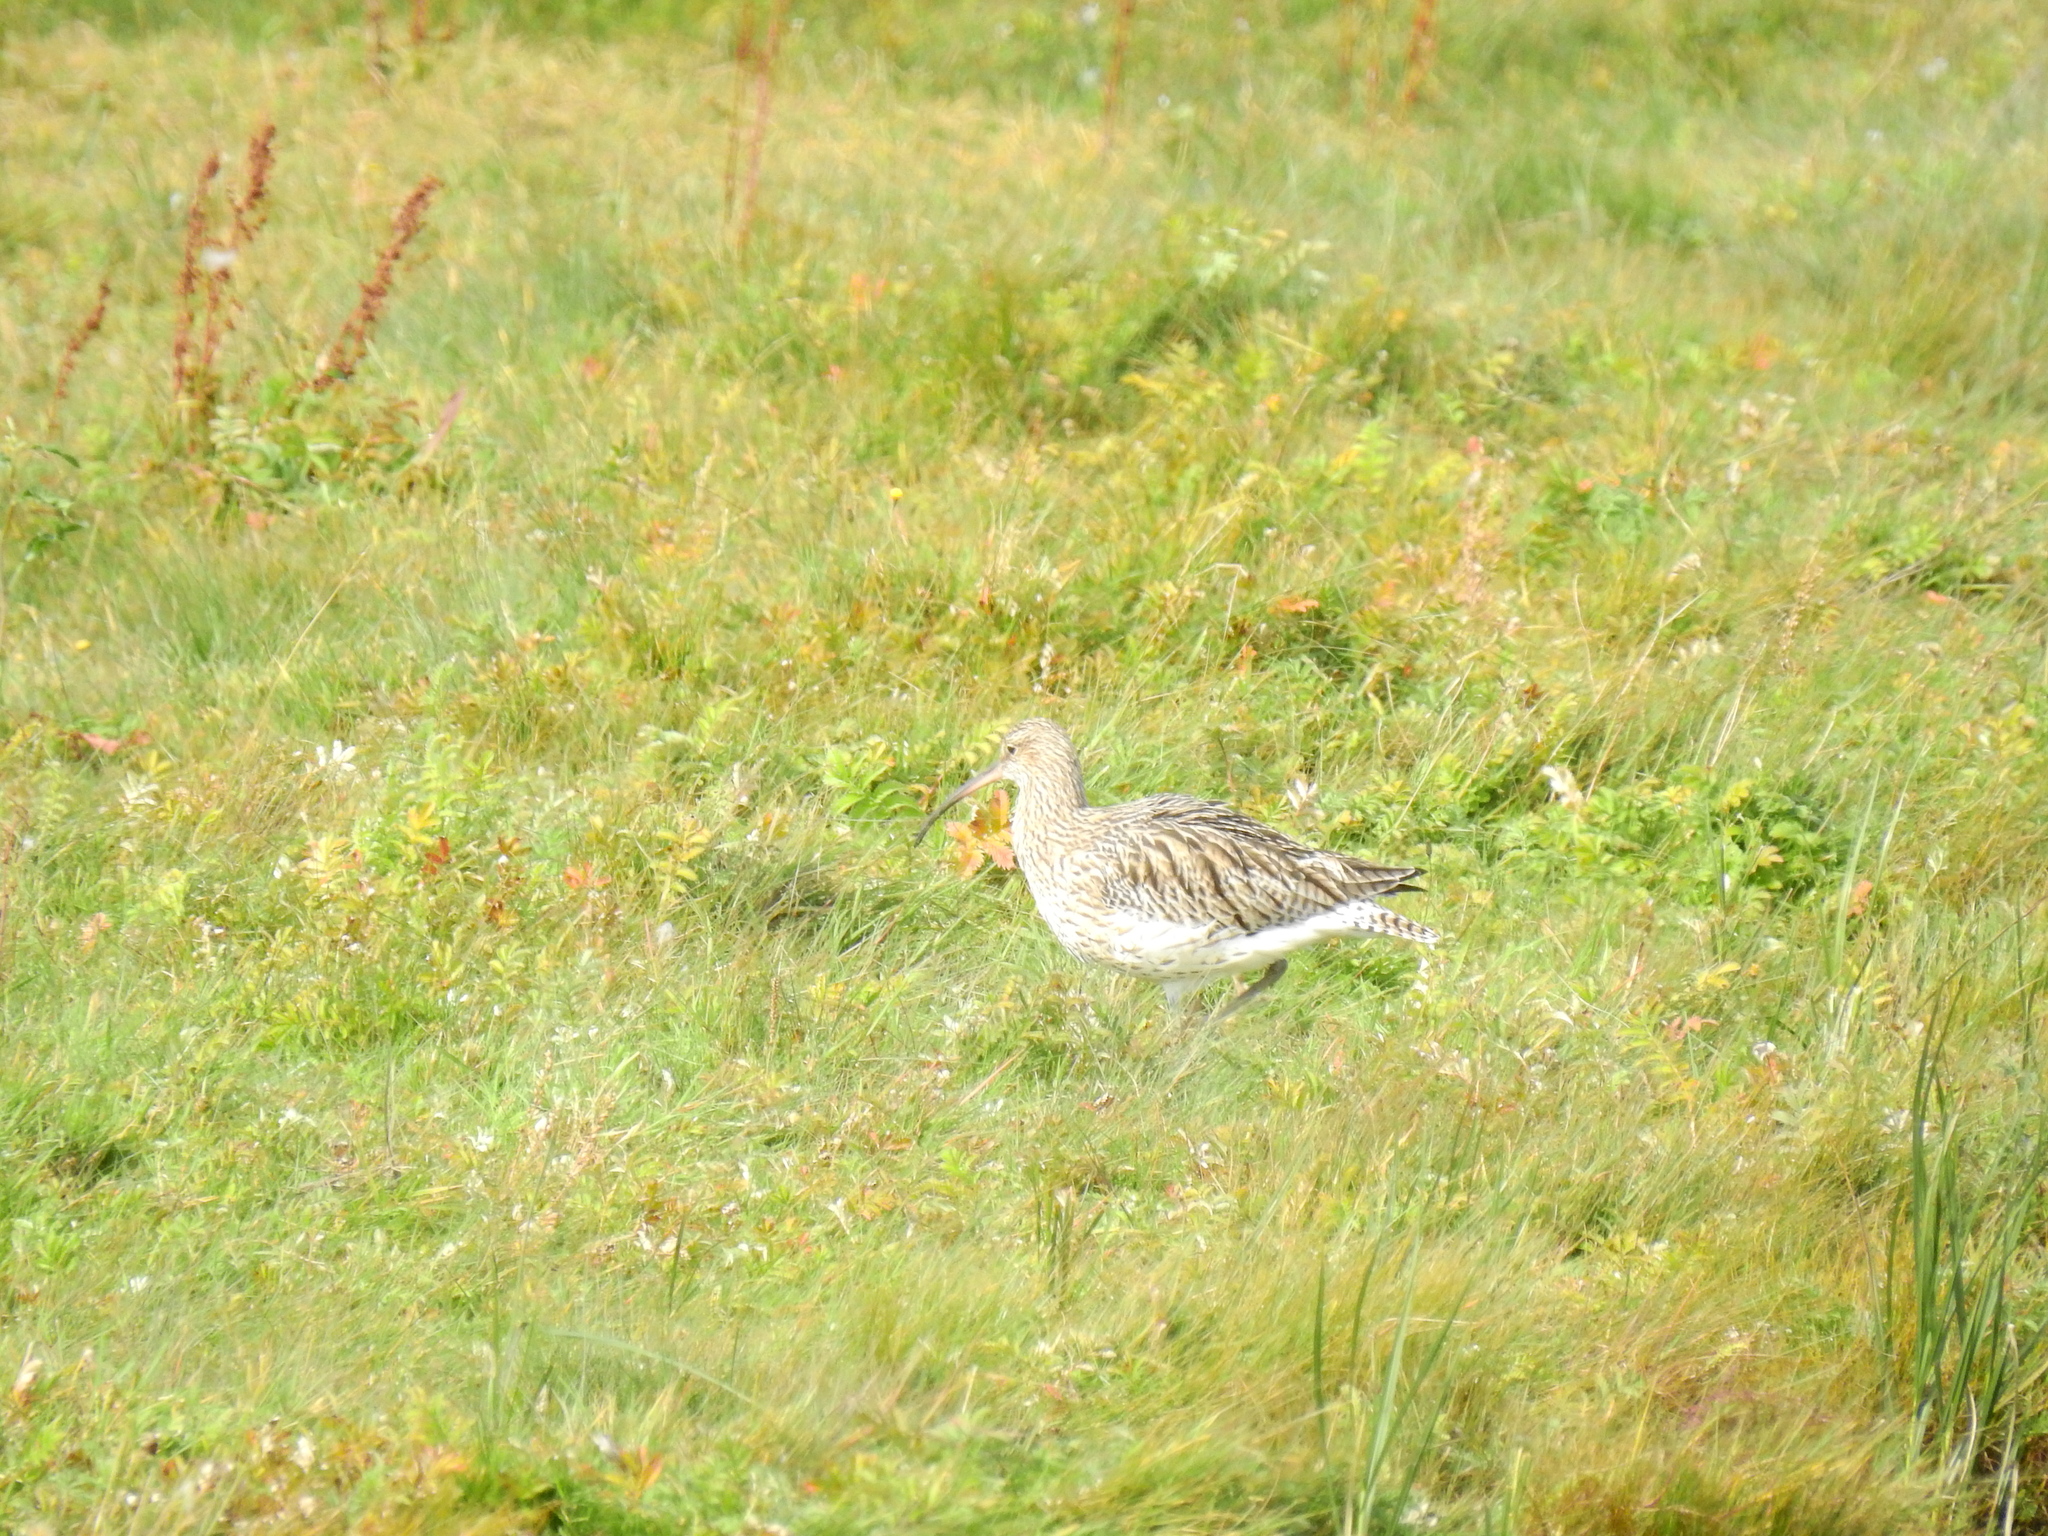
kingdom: Animalia
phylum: Chordata
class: Aves
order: Charadriiformes
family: Scolopacidae
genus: Numenius
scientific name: Numenius arquata
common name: Eurasian curlew
